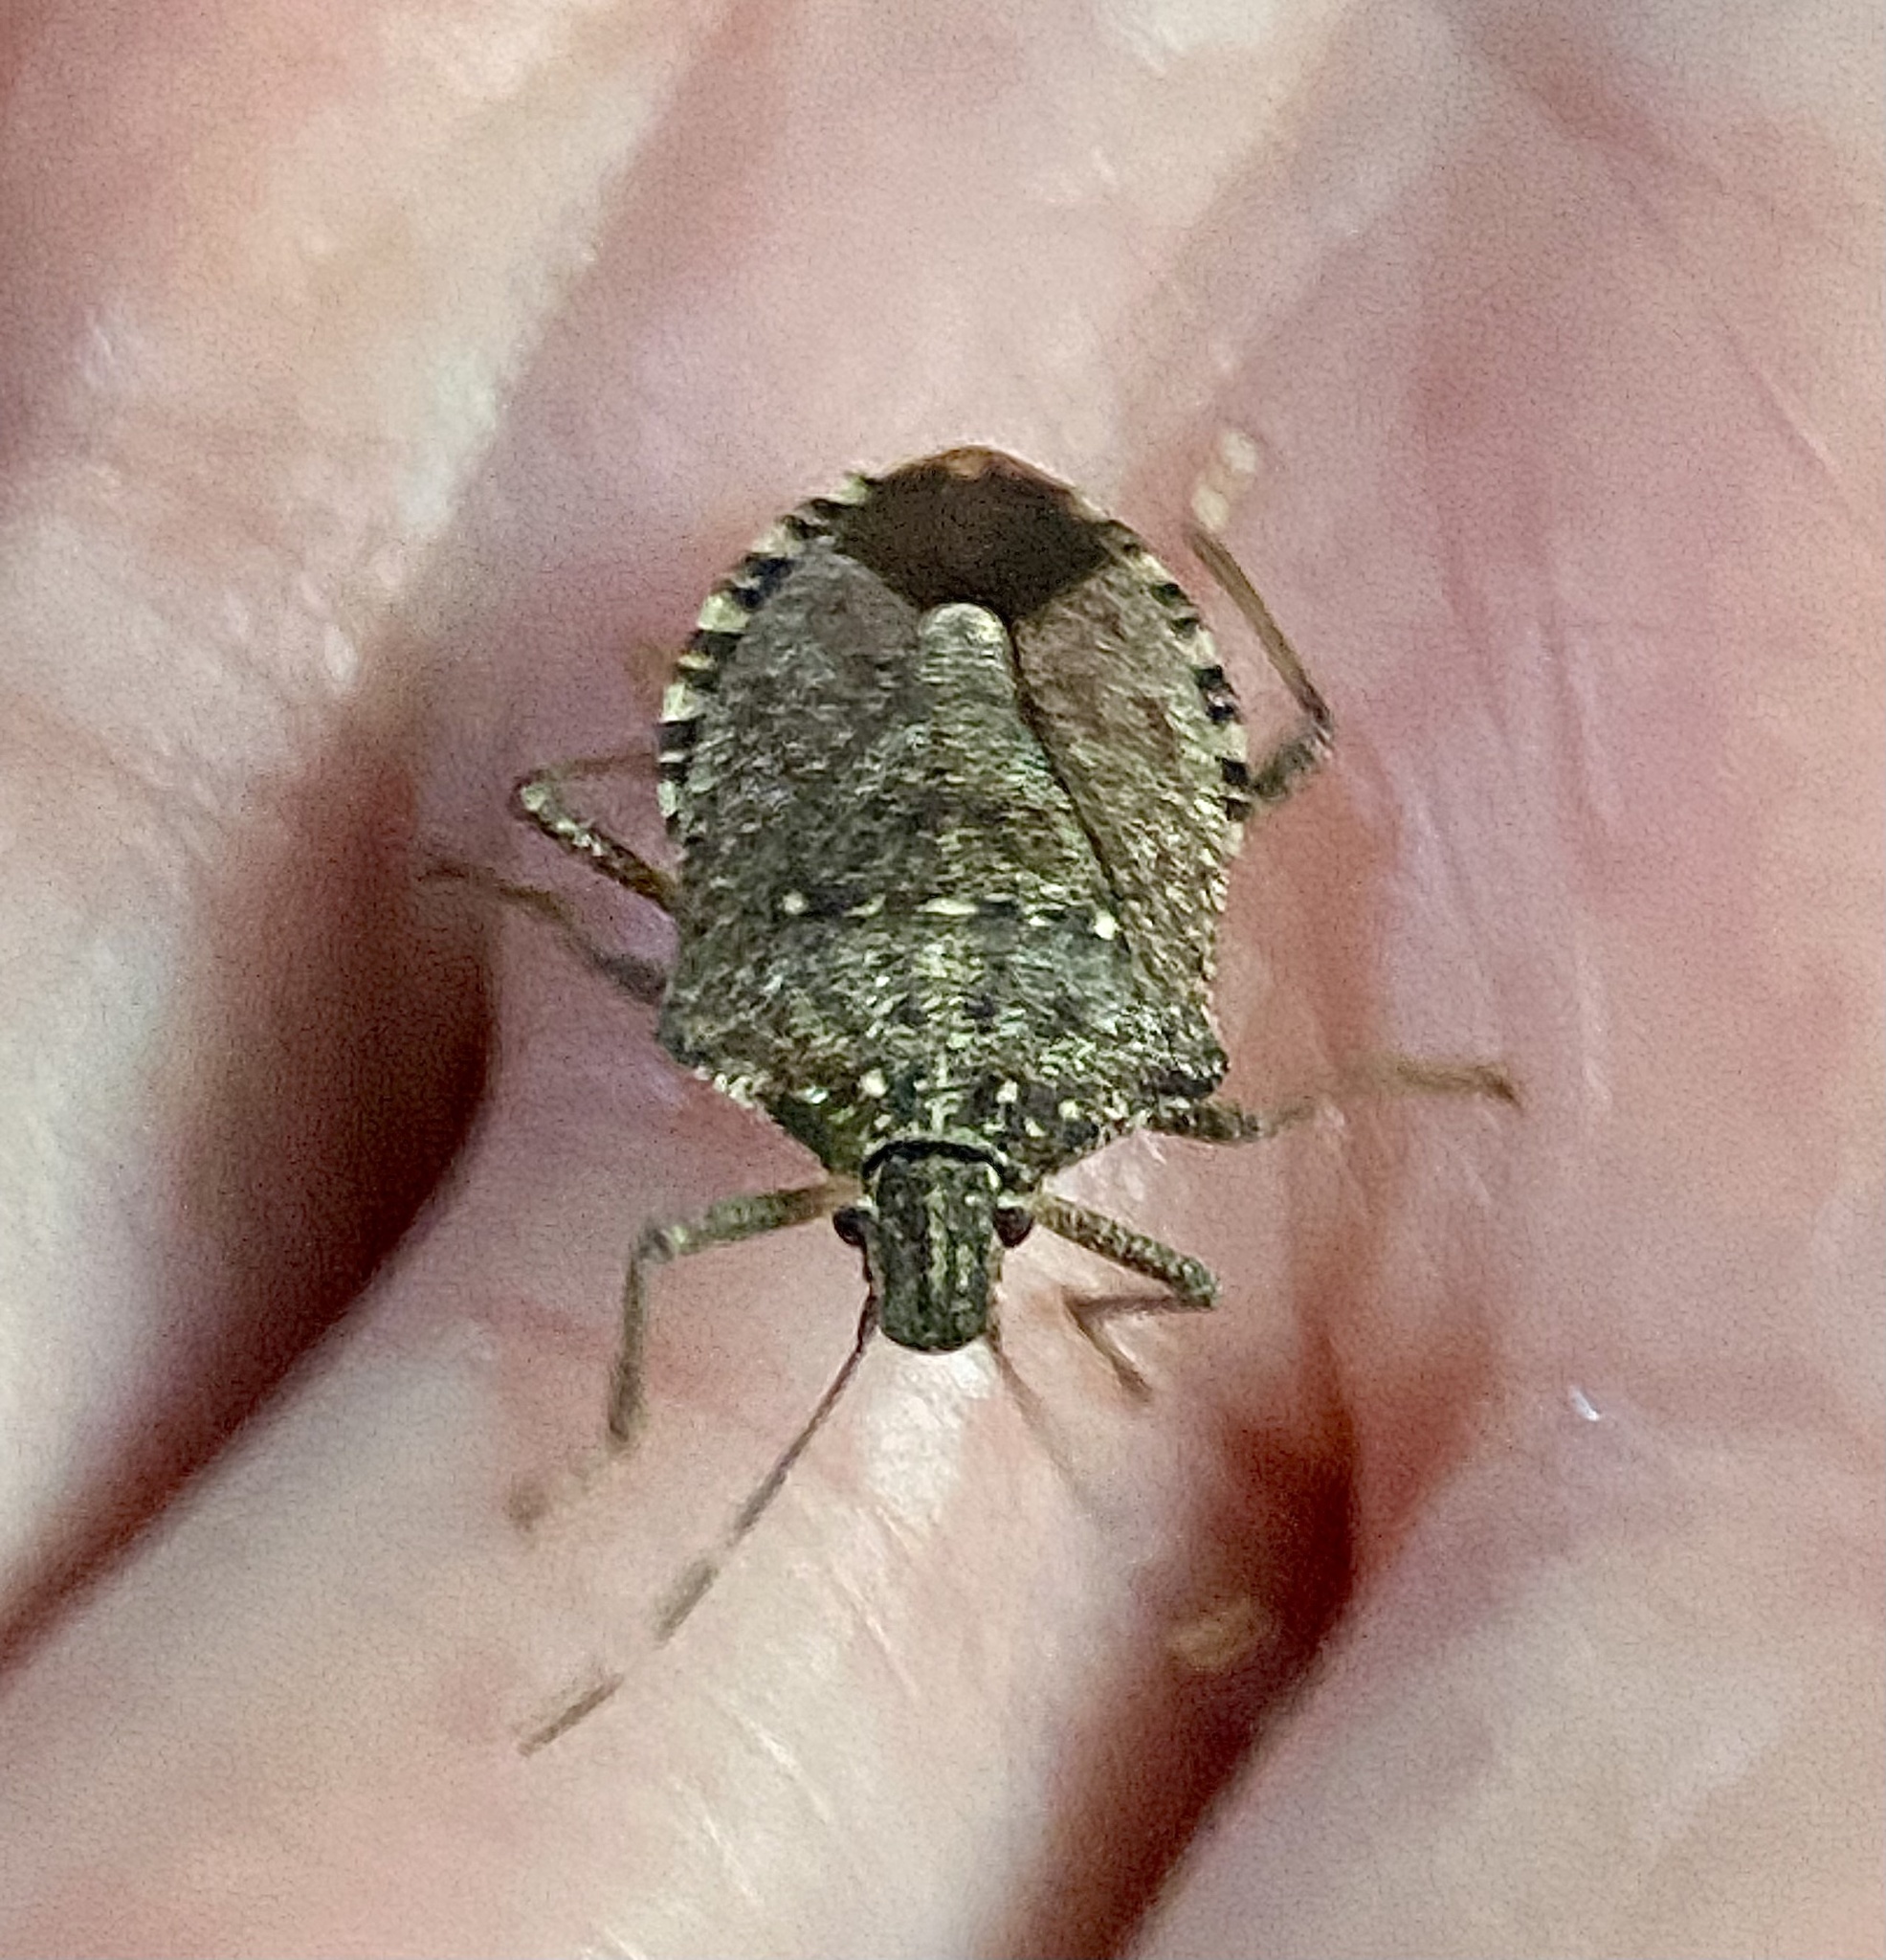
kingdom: Animalia
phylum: Arthropoda
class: Insecta
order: Hemiptera
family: Pentatomidae
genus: Halyomorpha
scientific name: Halyomorpha halys
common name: Brown marmorated stink bug
